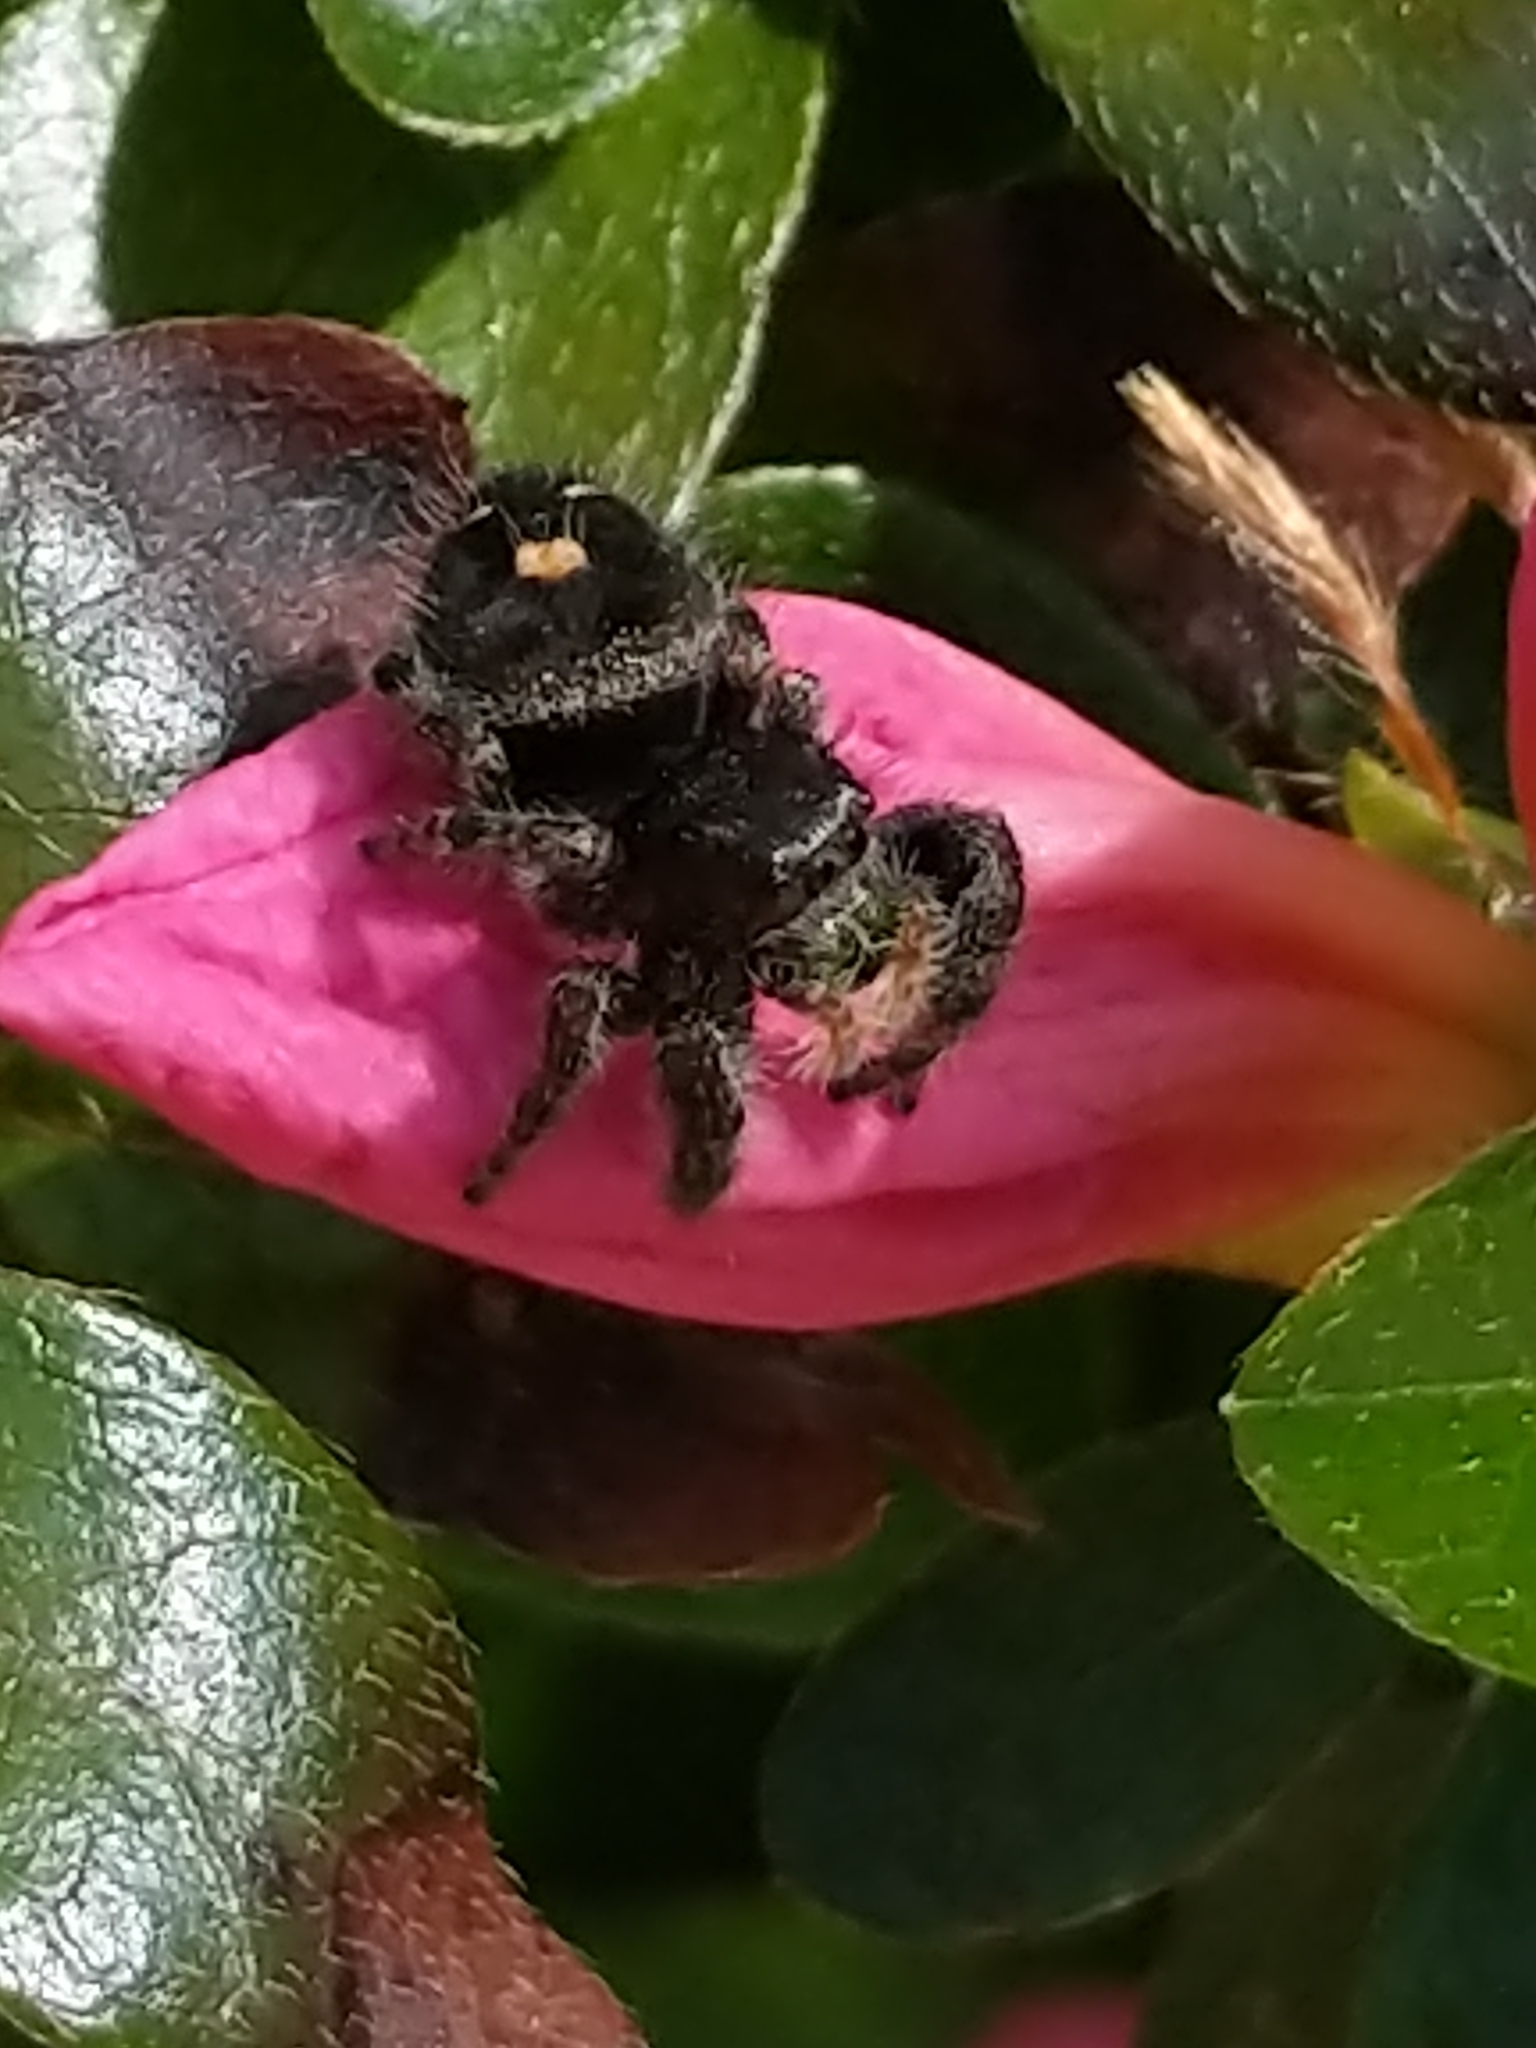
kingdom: Animalia
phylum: Arthropoda
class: Arachnida
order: Araneae
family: Salticidae
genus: Phidippus
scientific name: Phidippus audax
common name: Bold jumper
